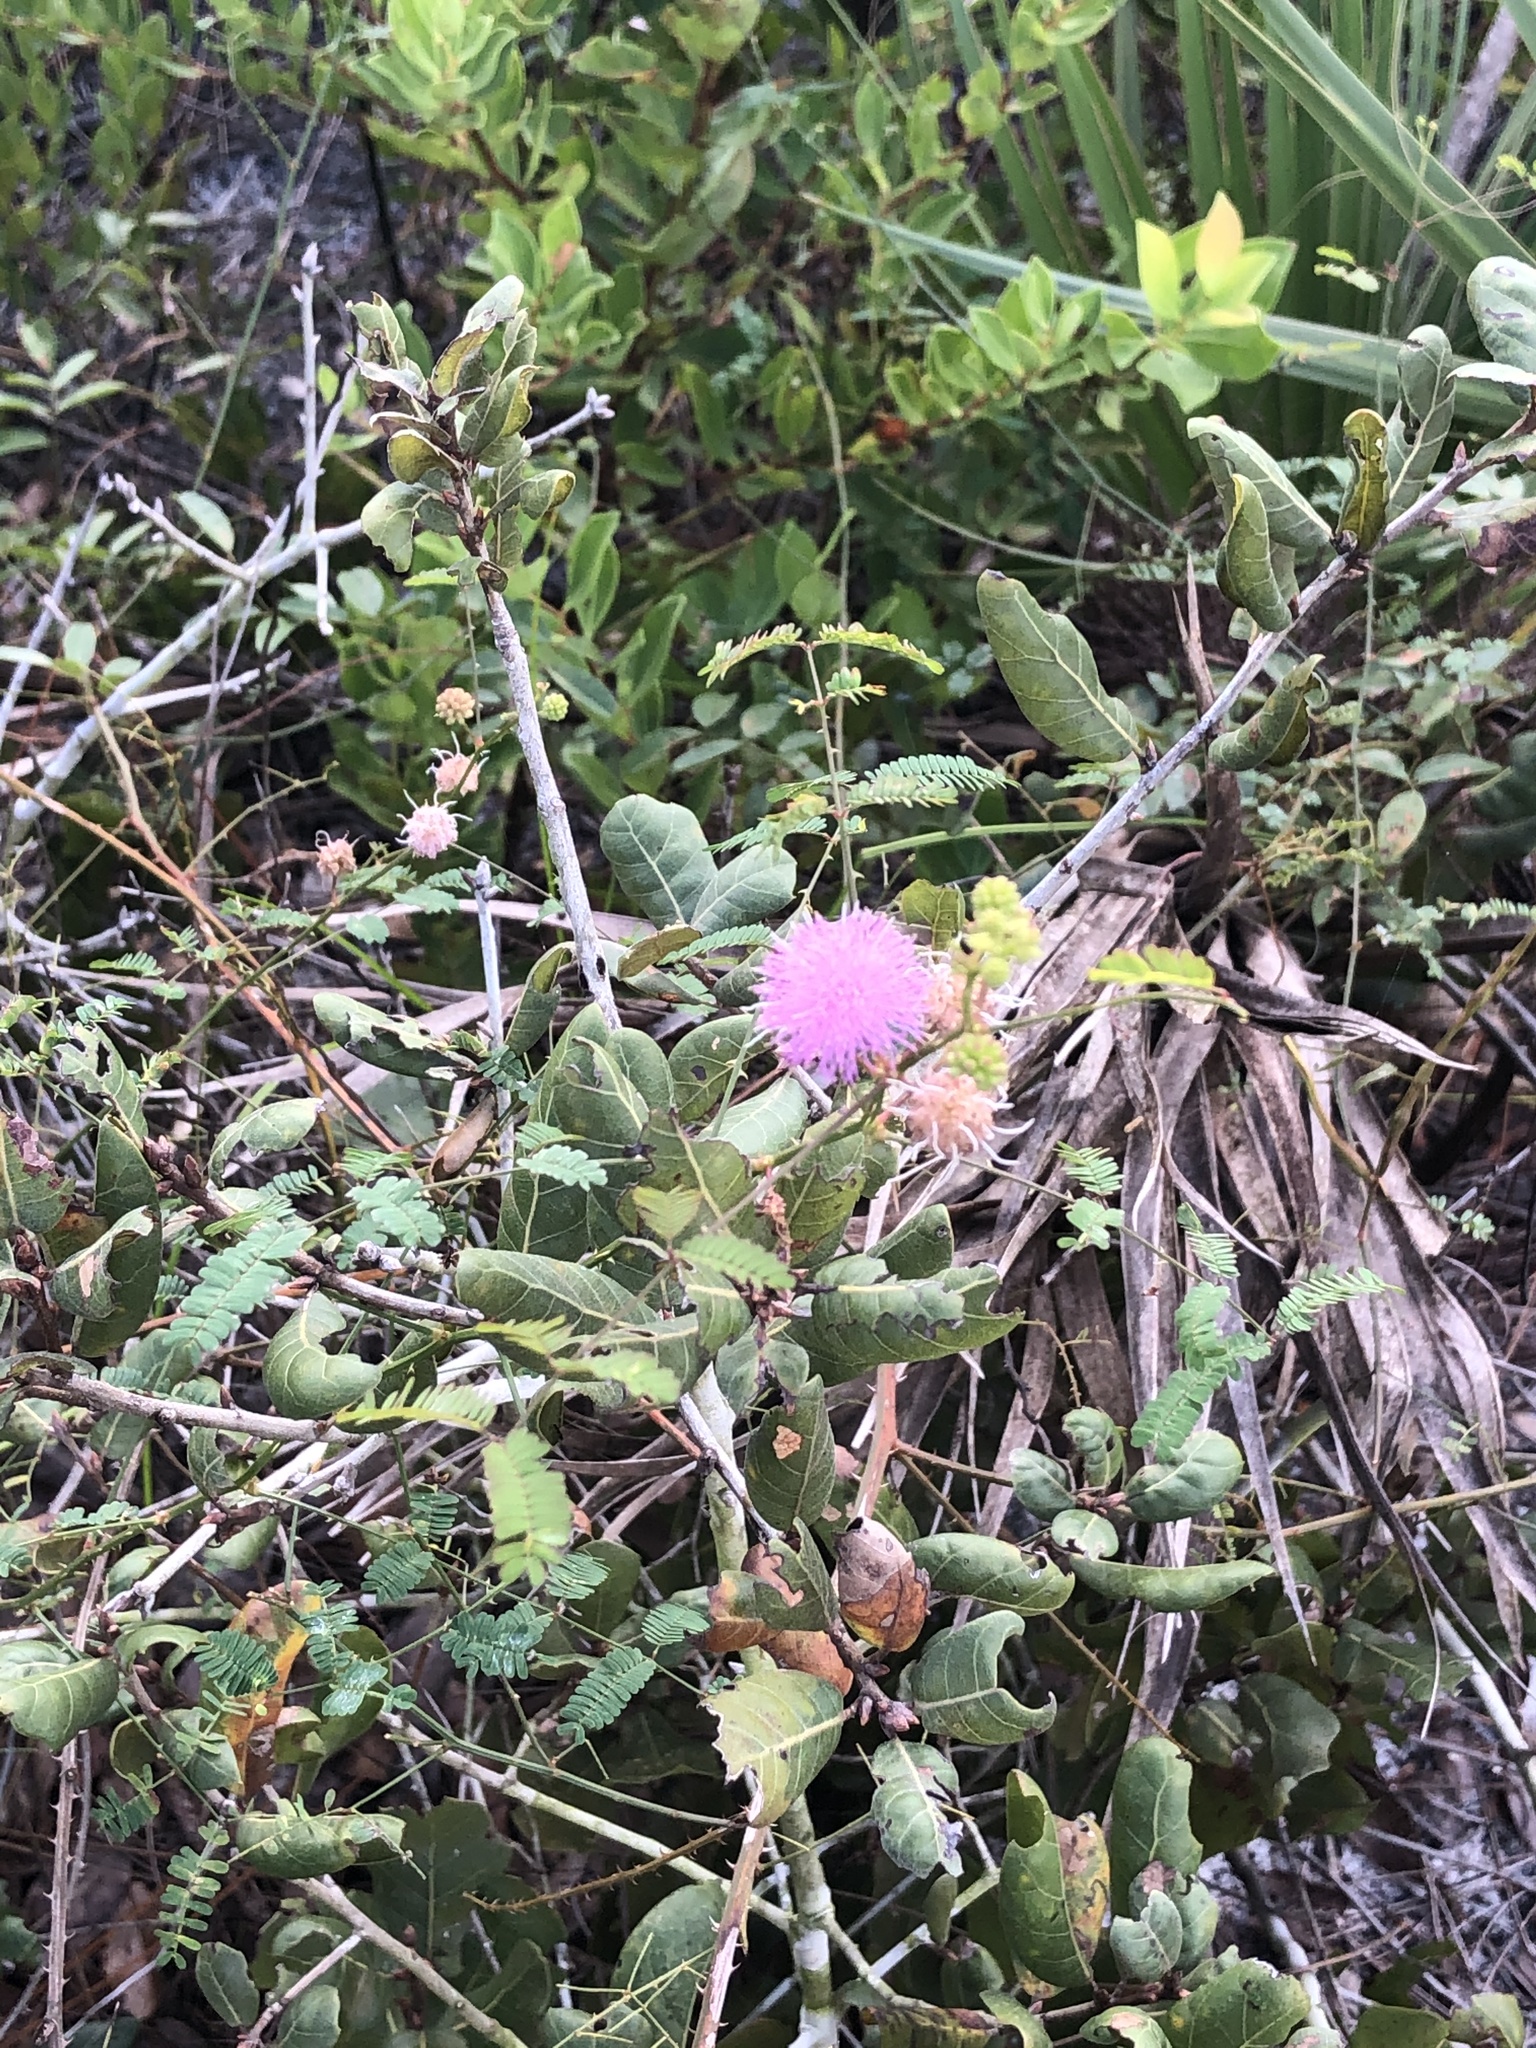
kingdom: Plantae
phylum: Tracheophyta
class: Magnoliopsida
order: Fabales
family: Fabaceae
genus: Mimosa
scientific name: Mimosa floridana
